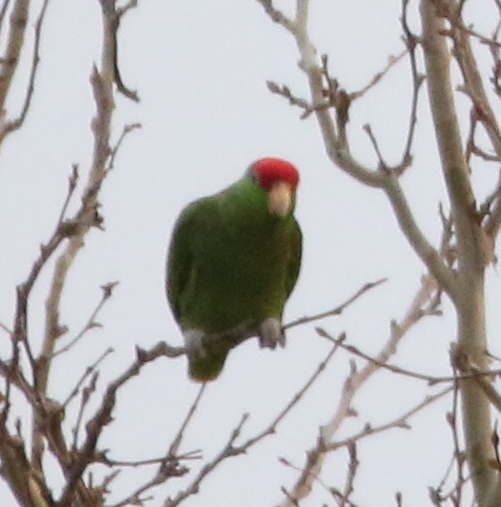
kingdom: Animalia
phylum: Chordata
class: Aves
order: Psittaciformes
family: Psittacidae
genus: Amazona
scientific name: Amazona viridigenalis
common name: Red-crowned amazon
